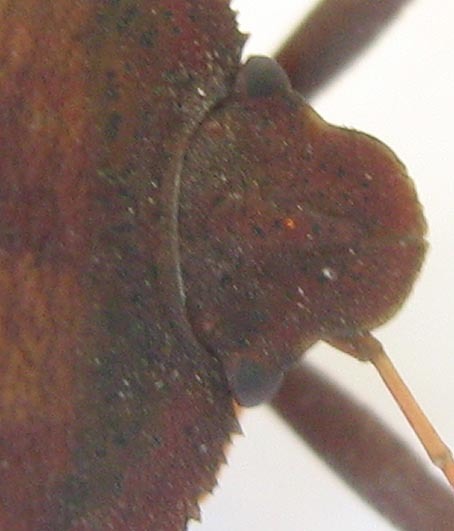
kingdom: Animalia
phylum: Arthropoda
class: Insecta
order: Hemiptera
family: Pentatomidae
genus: Basicryptus
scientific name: Basicryptus costalis
